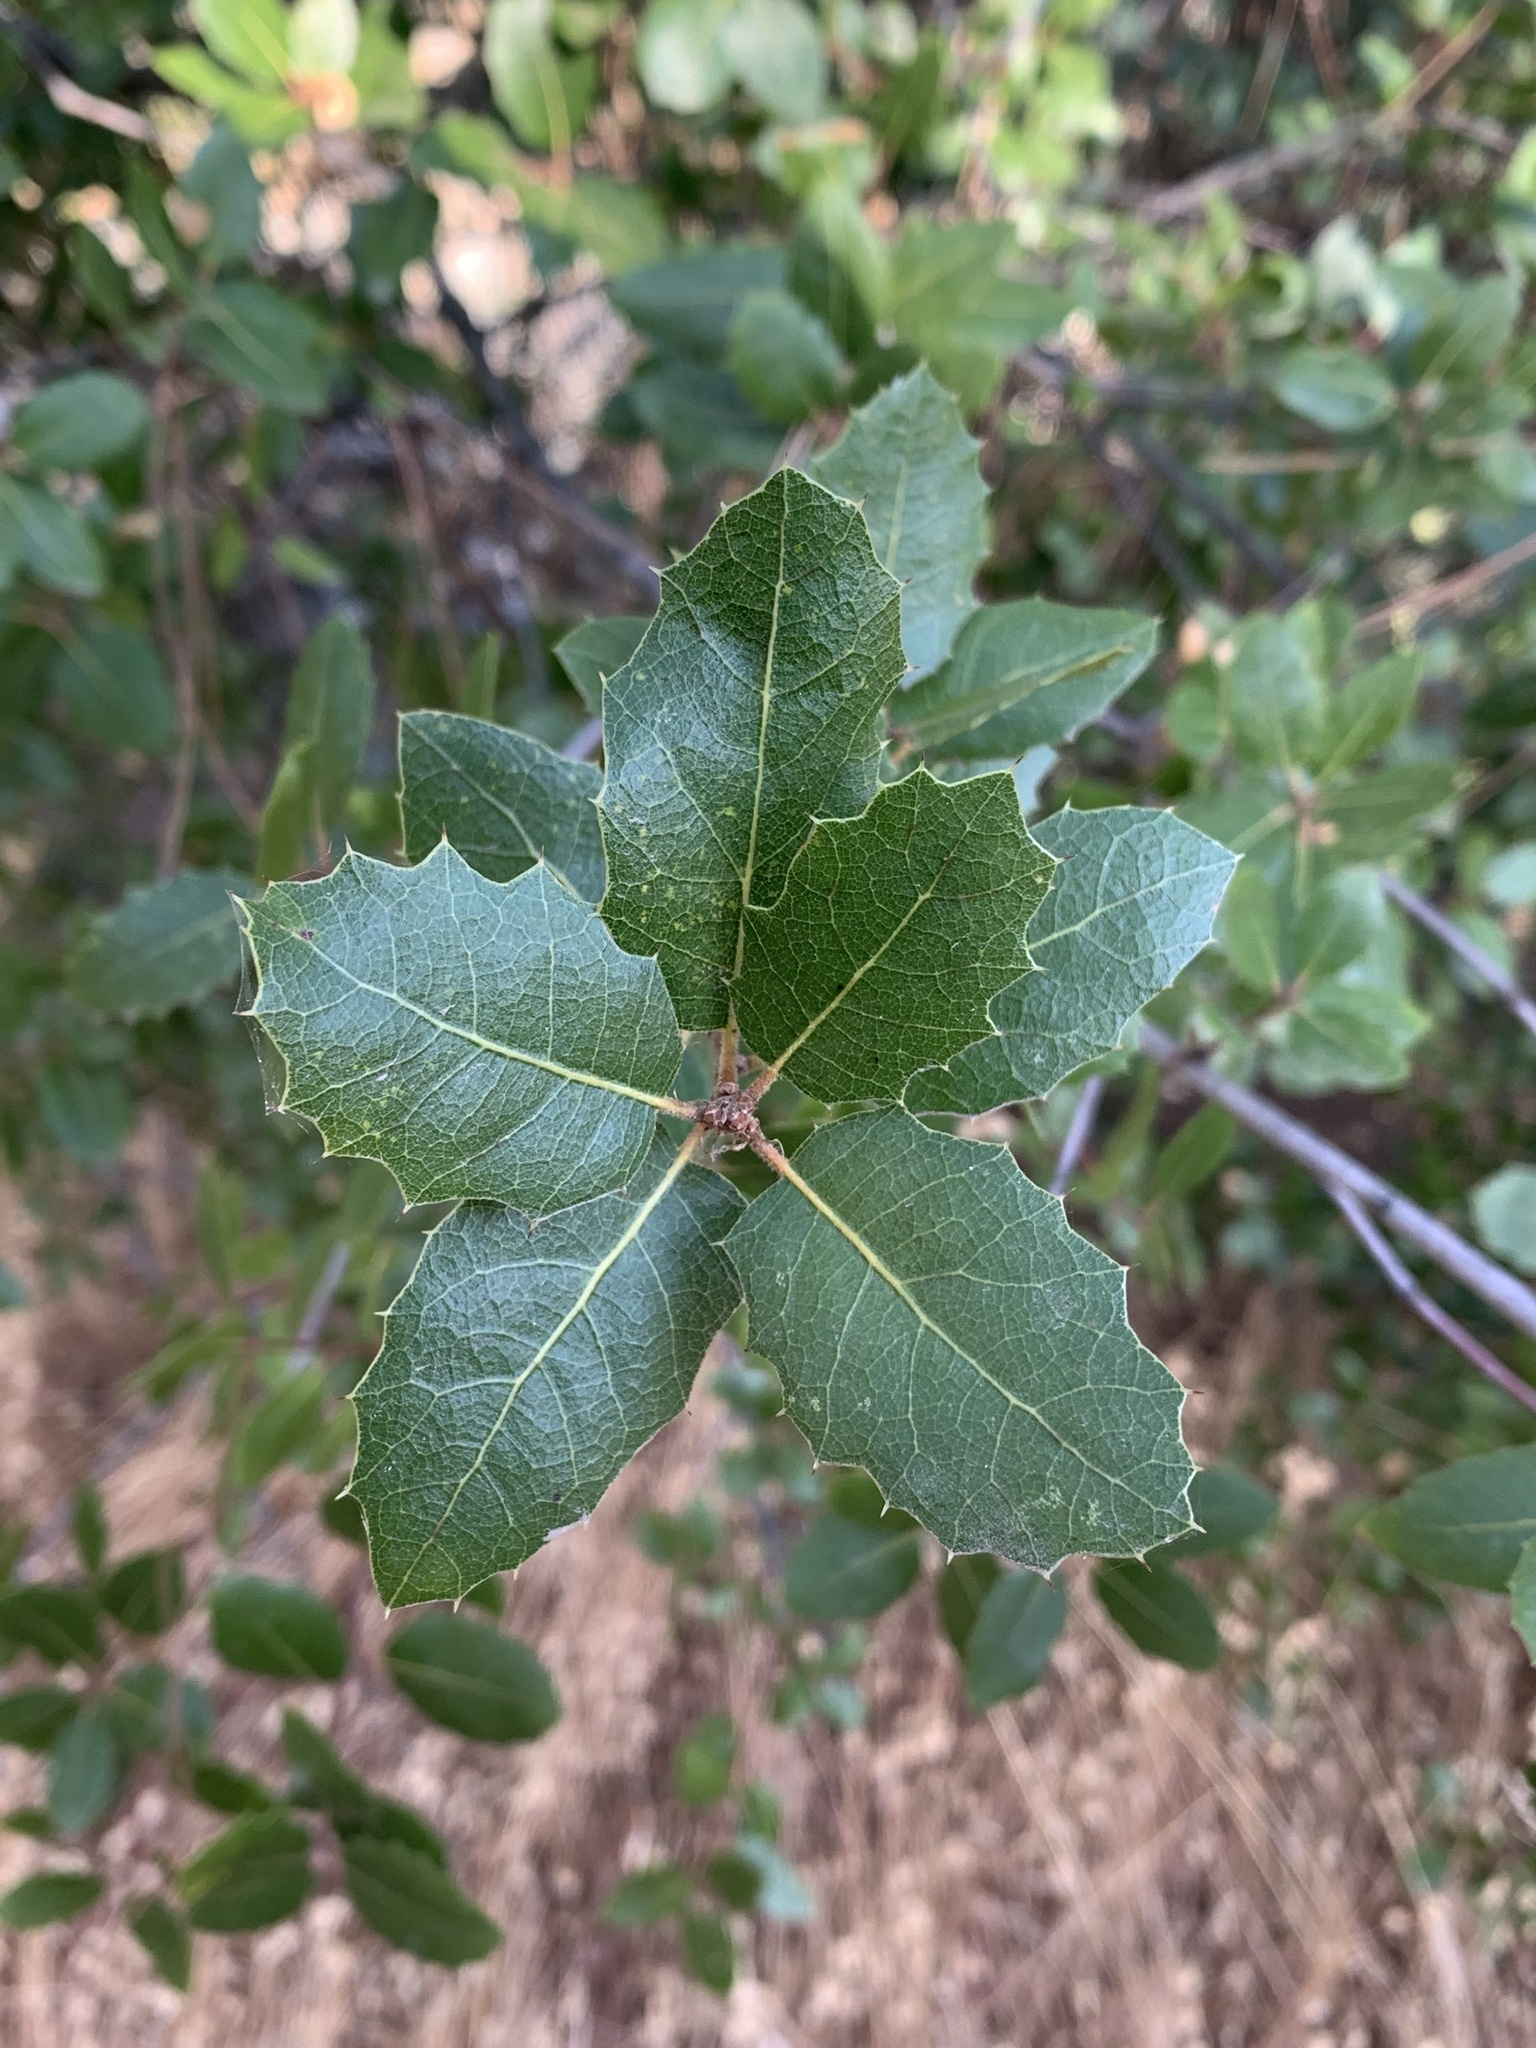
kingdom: Plantae
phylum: Tracheophyta
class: Magnoliopsida
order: Fagales
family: Fagaceae
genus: Quercus
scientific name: Quercus wislizeni
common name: Interior live oak
